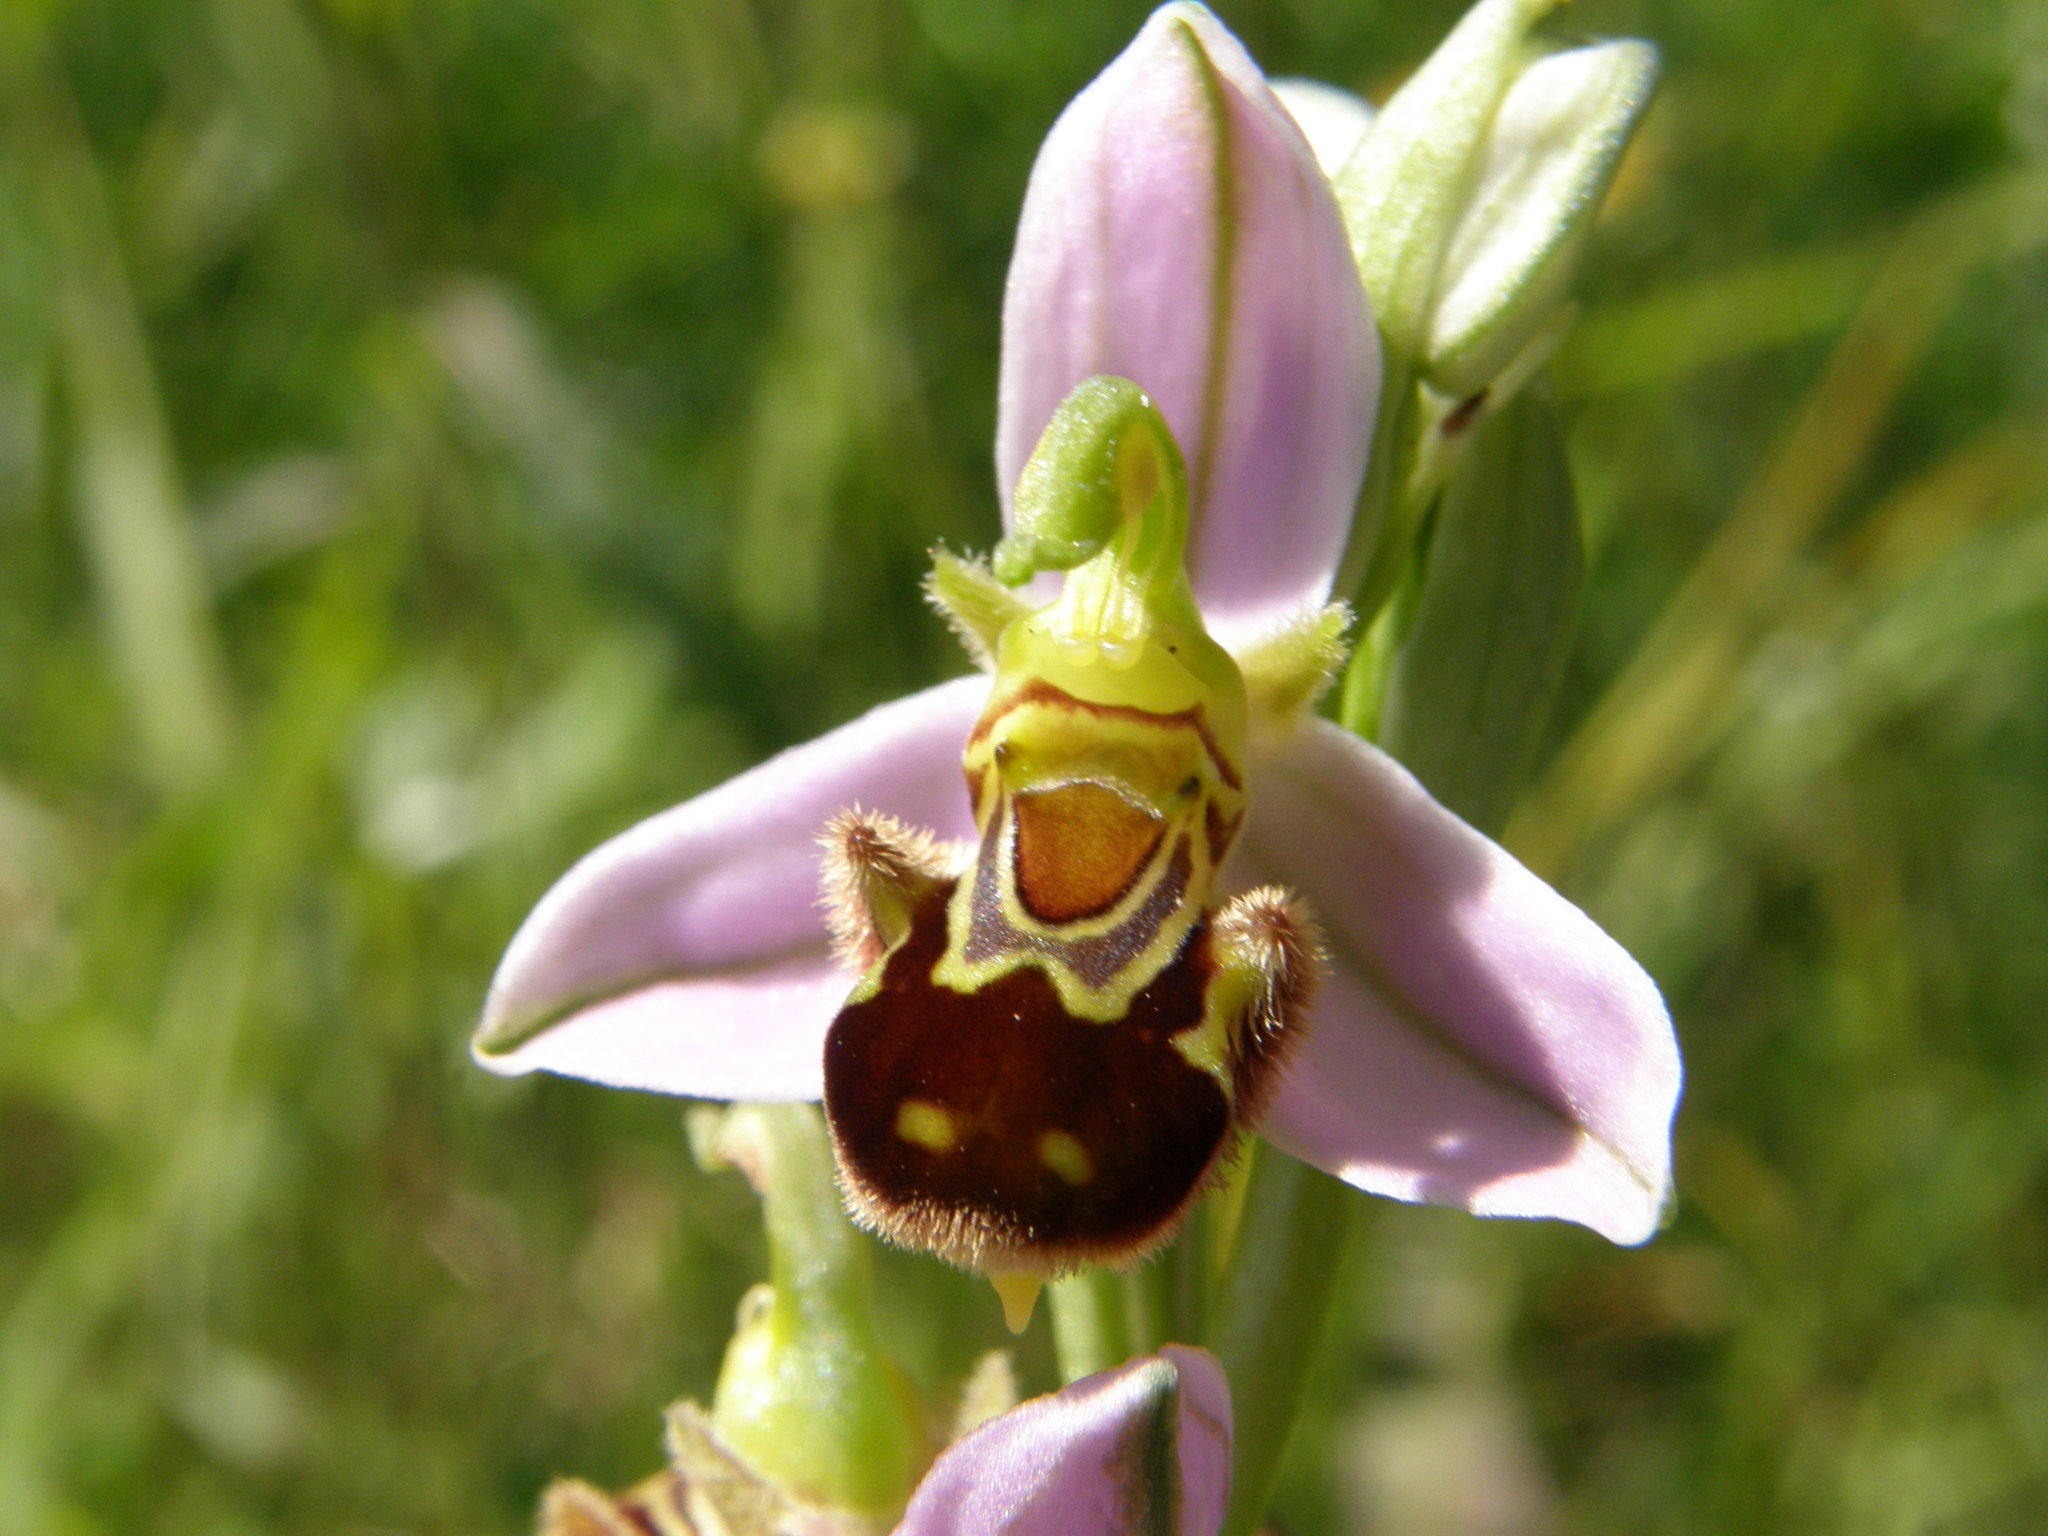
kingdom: Plantae
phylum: Tracheophyta
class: Liliopsida
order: Asparagales
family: Orchidaceae
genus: Ophrys
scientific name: Ophrys apifera
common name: Bee orchid
